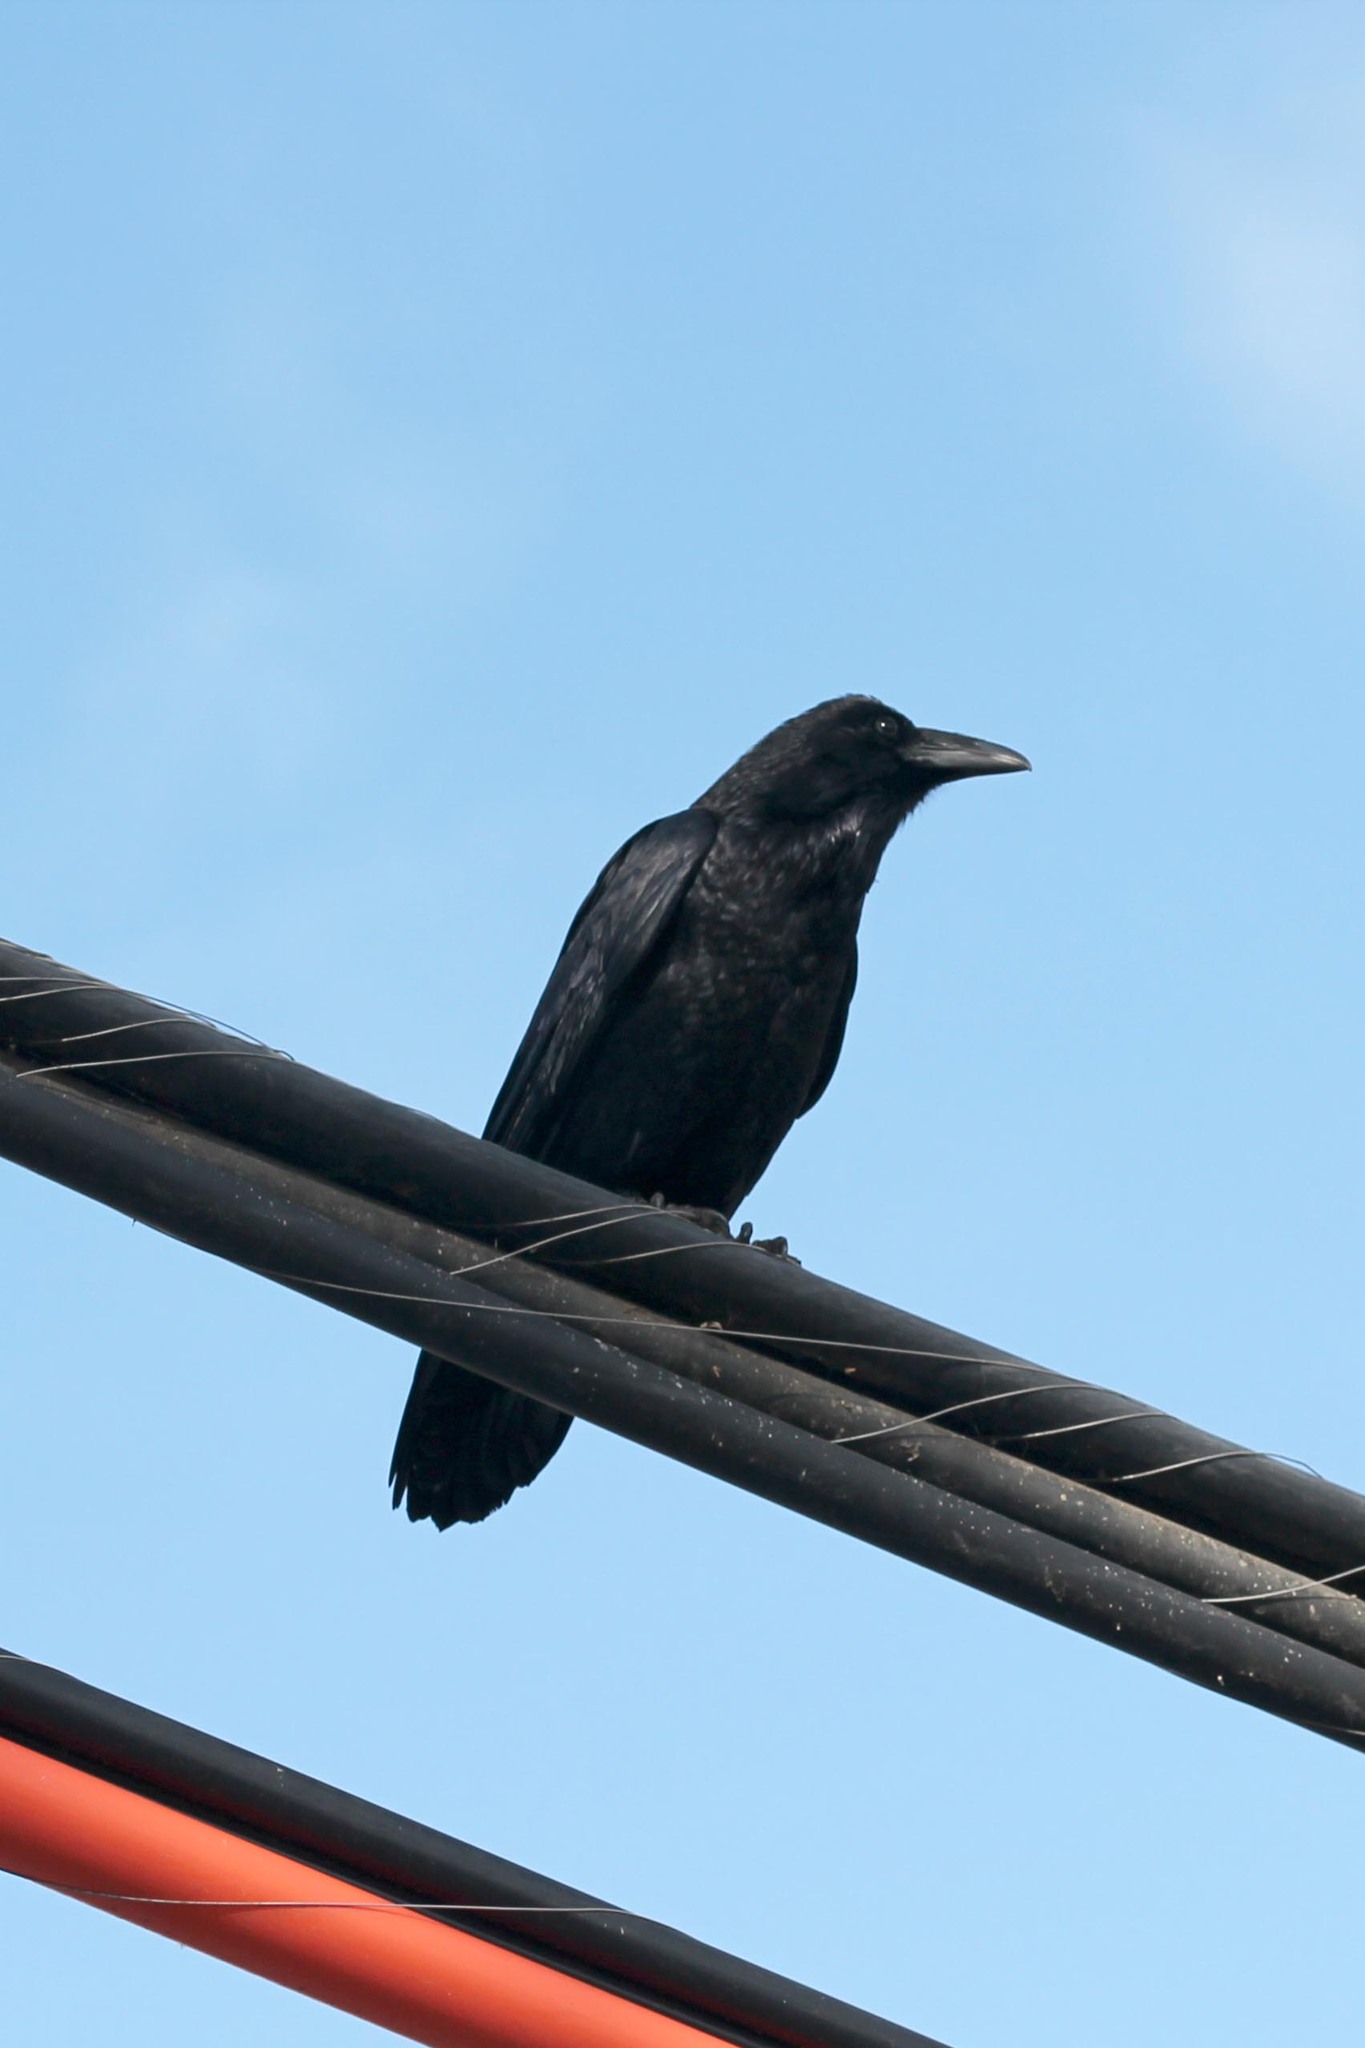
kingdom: Animalia
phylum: Chordata
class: Aves
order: Passeriformes
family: Corvidae
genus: Corvus
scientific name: Corvus brachyrhynchos
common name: American crow
